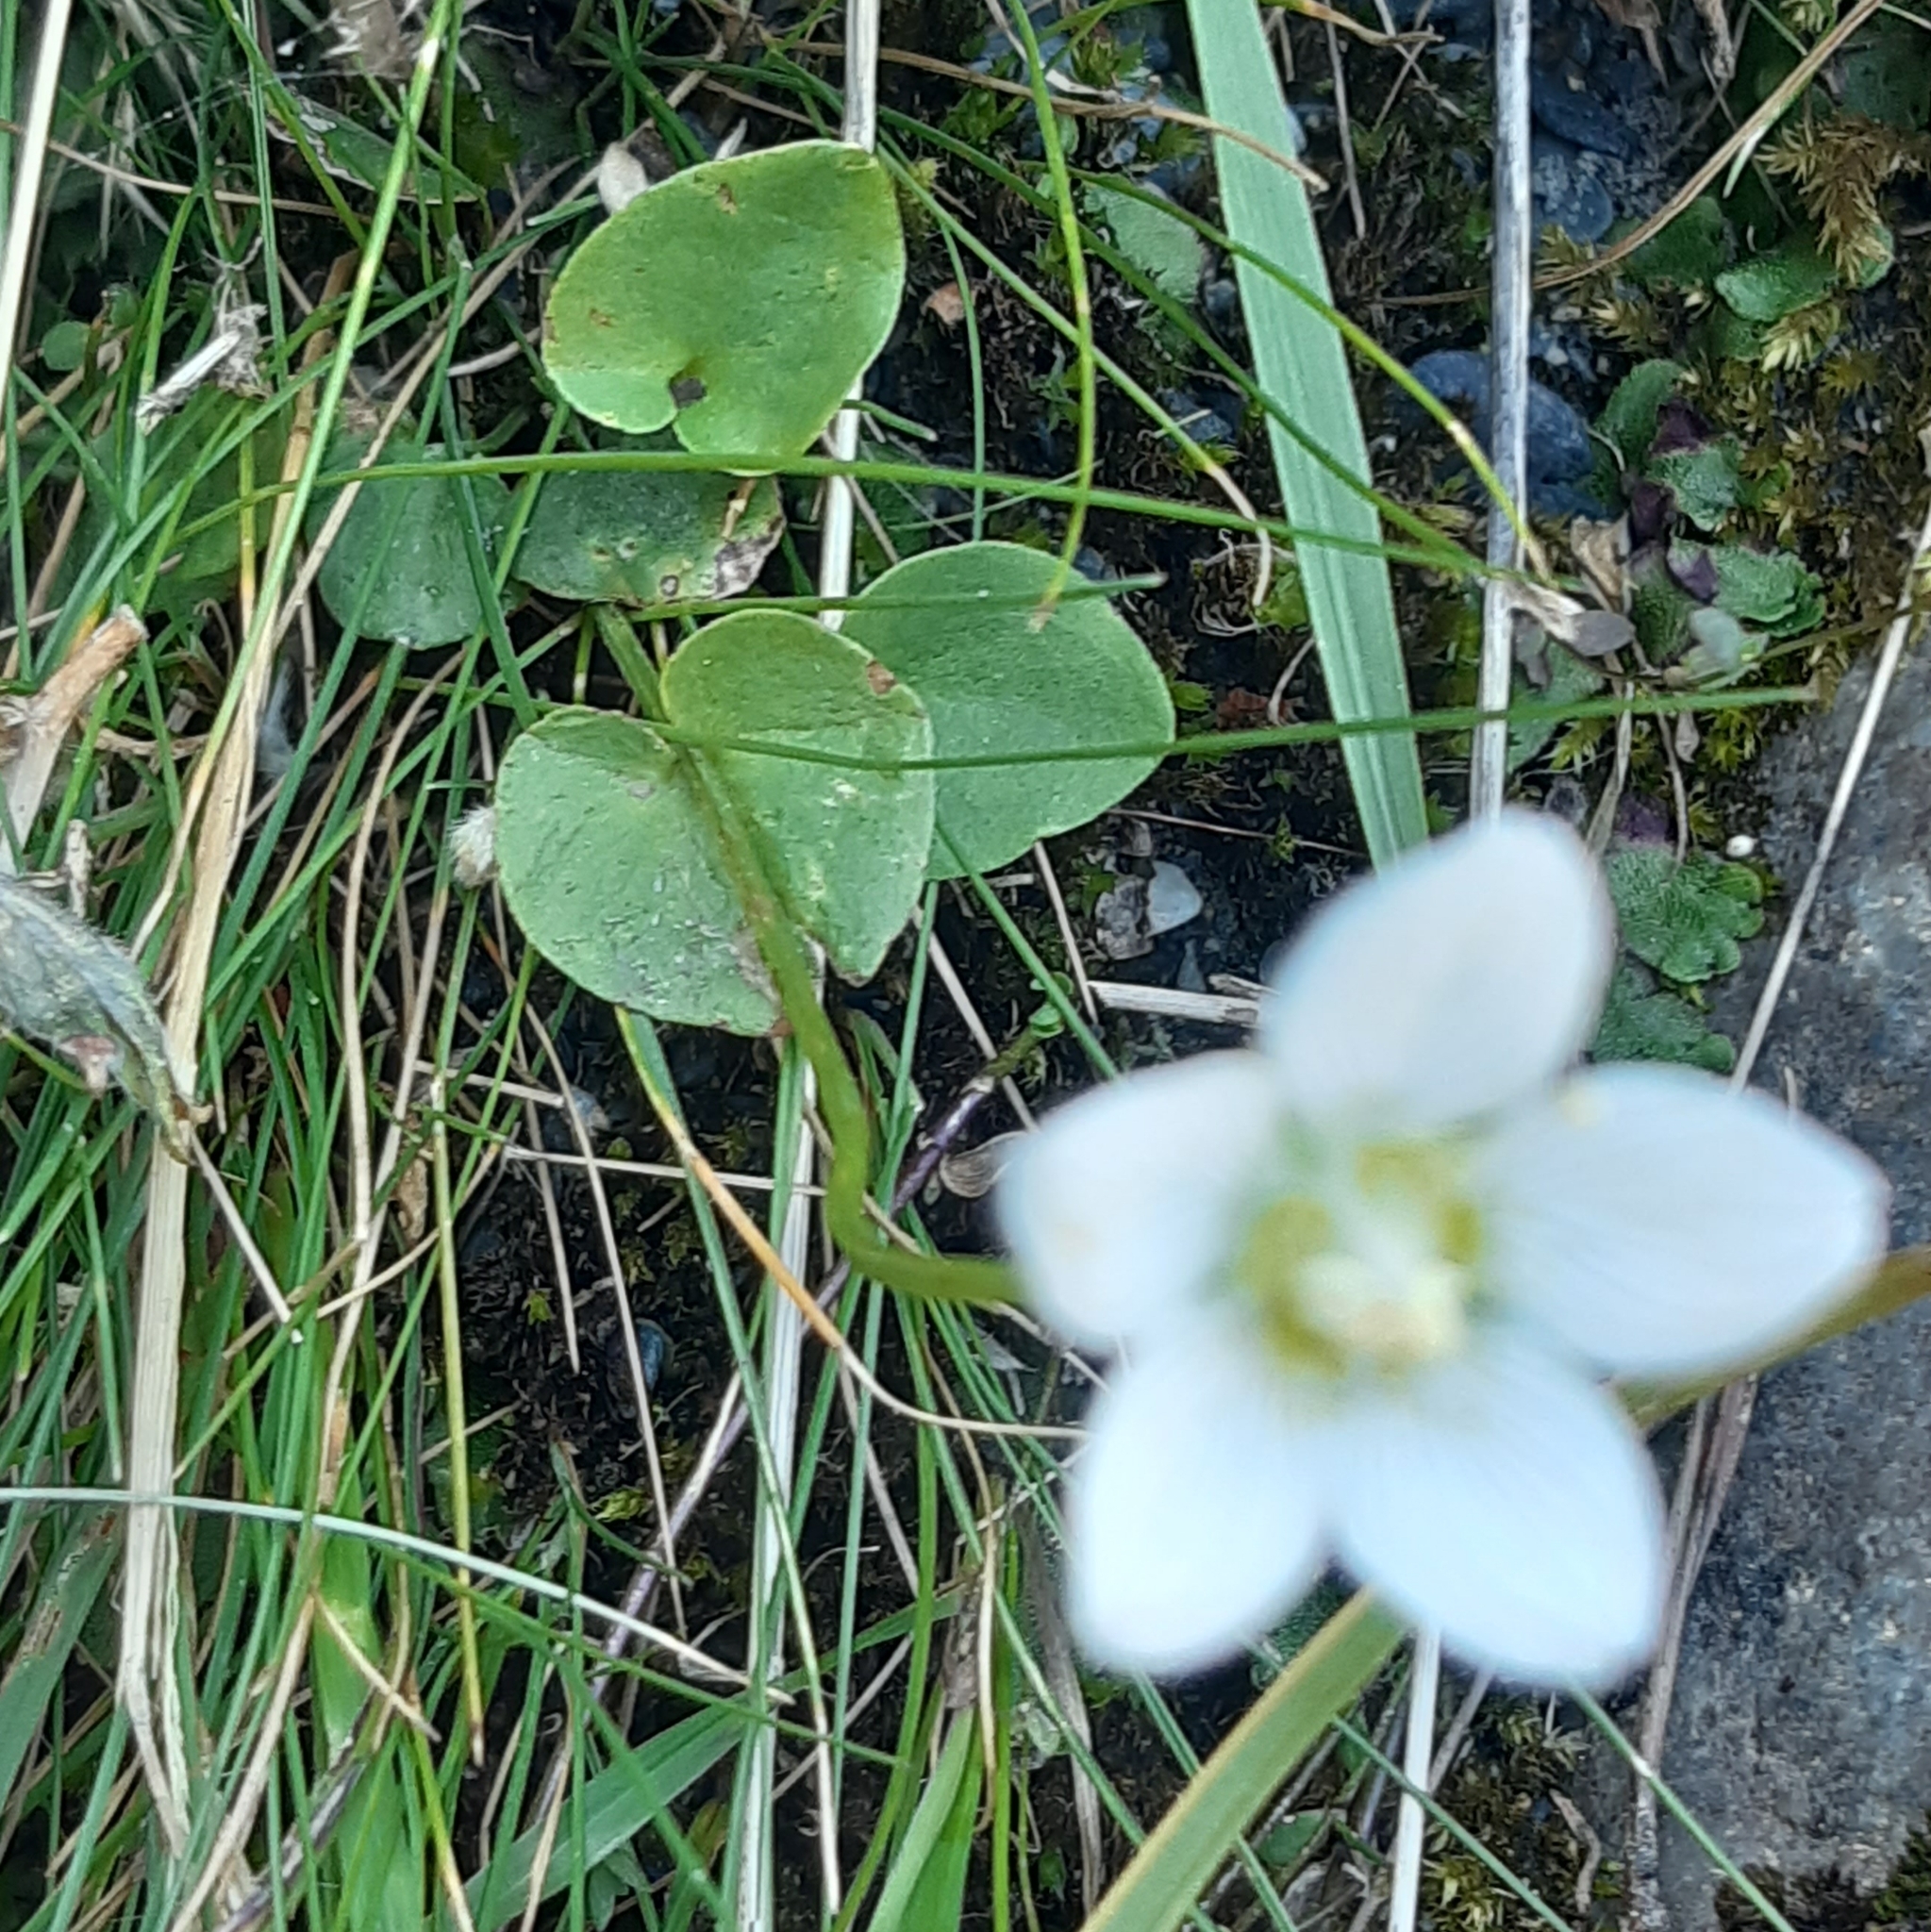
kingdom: Plantae
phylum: Tracheophyta
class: Magnoliopsida
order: Celastrales
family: Parnassiaceae
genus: Parnassia
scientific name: Parnassia palustris
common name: Grass-of-parnassus
